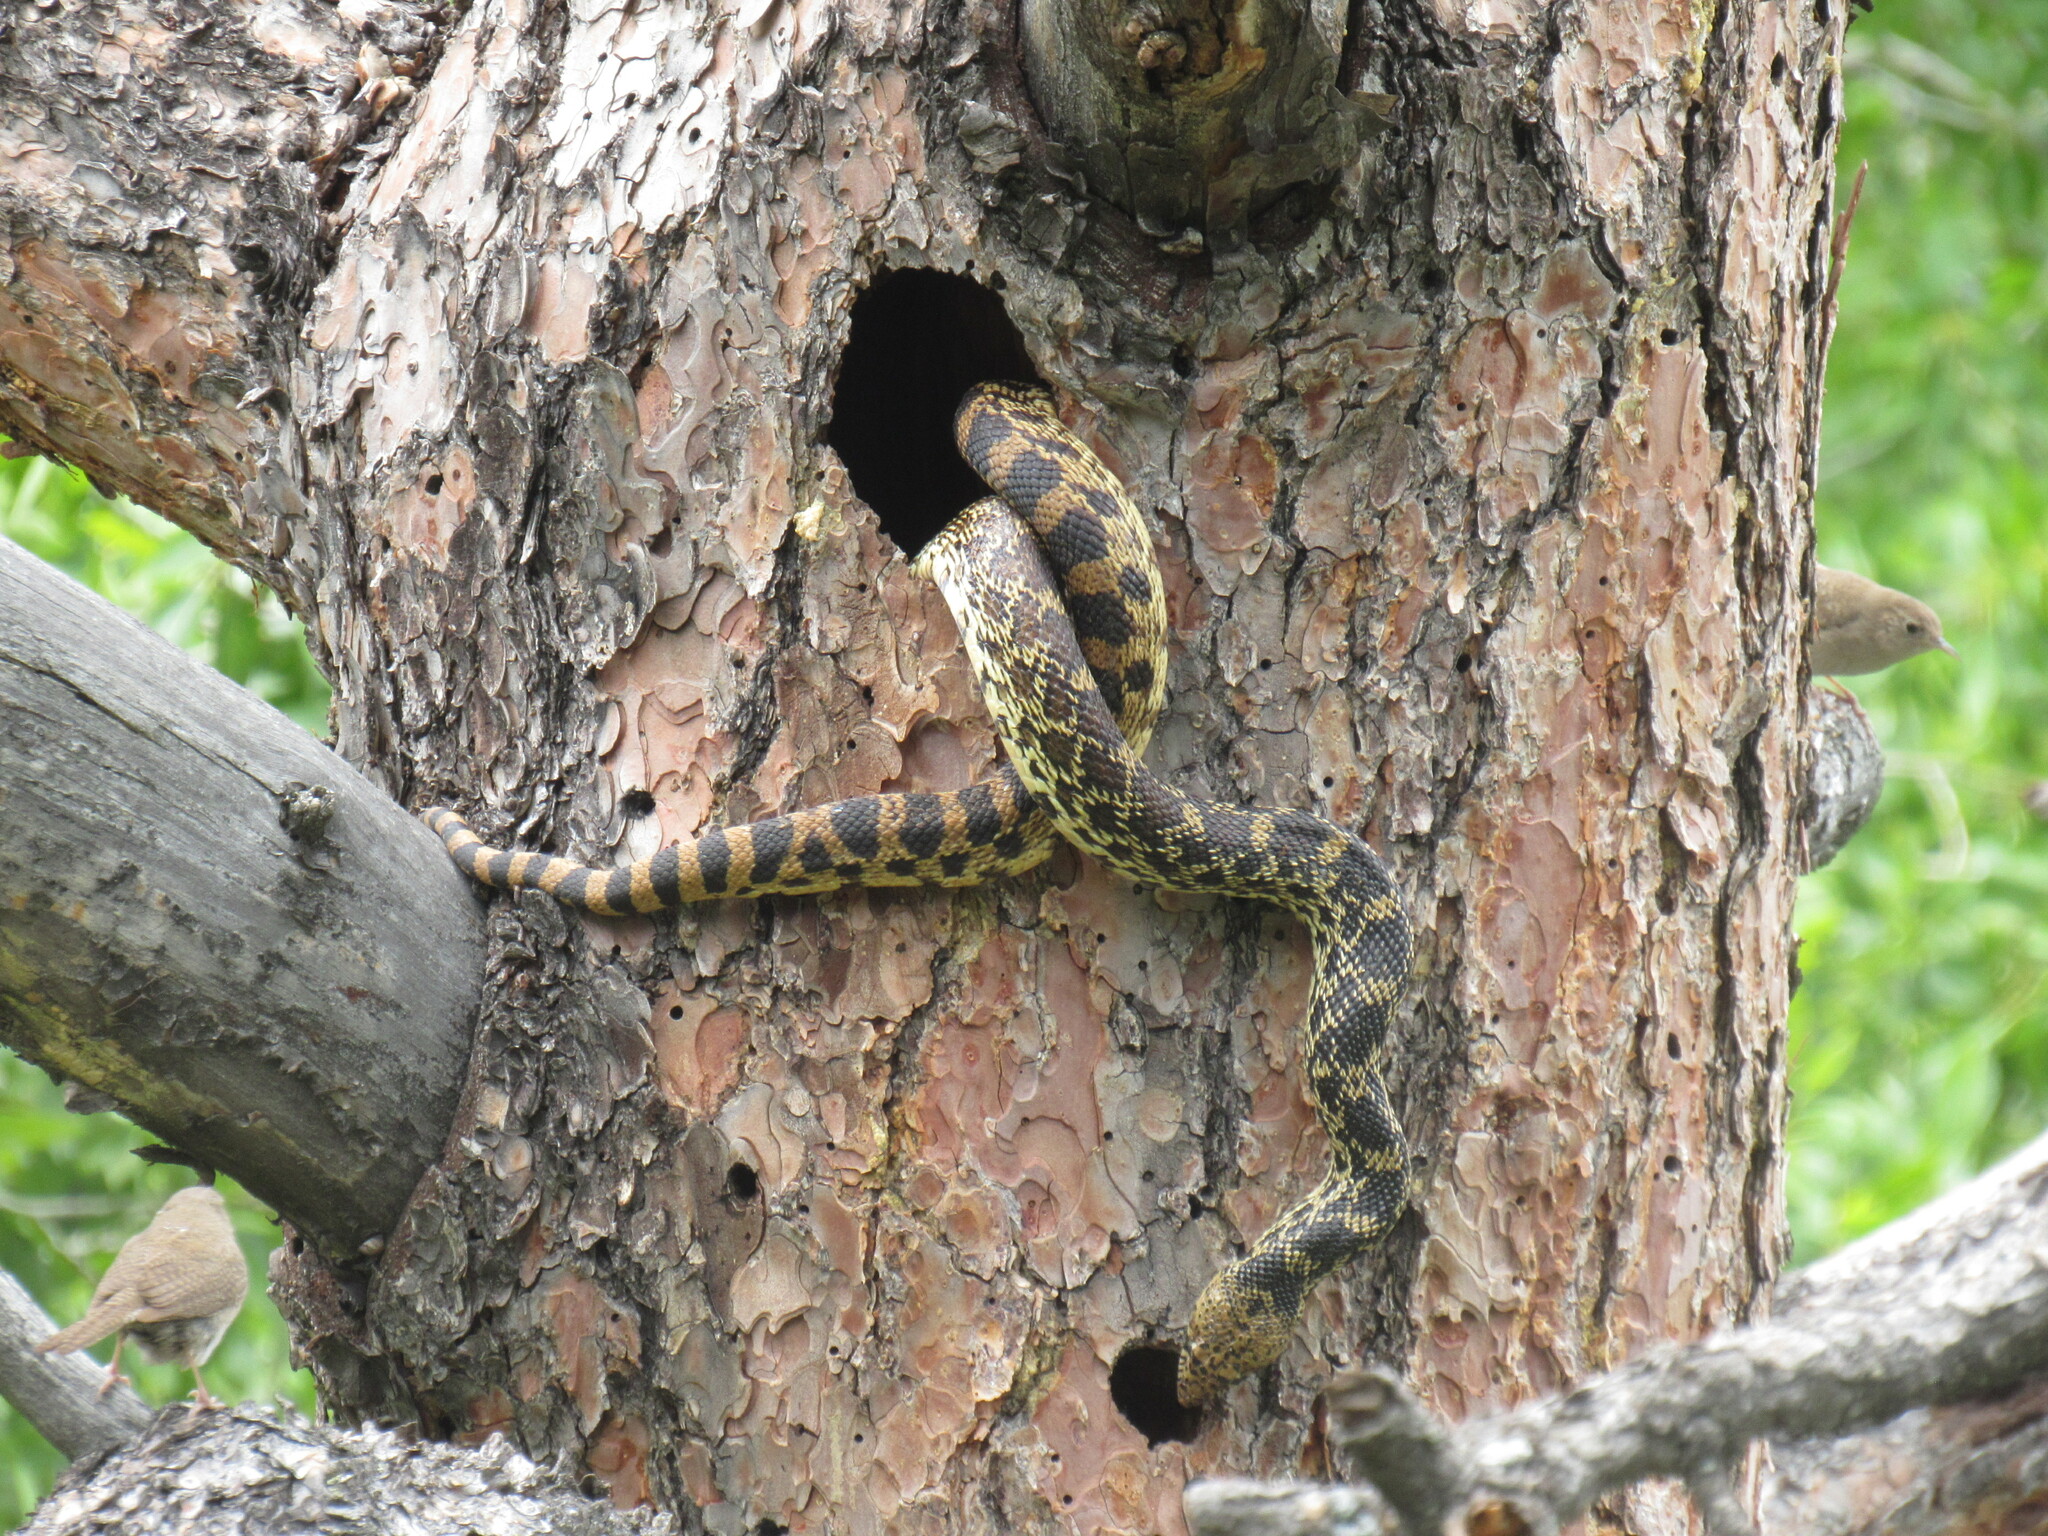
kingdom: Animalia
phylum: Chordata
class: Squamata
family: Colubridae
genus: Pituophis
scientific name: Pituophis catenifer
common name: Gopher snake
